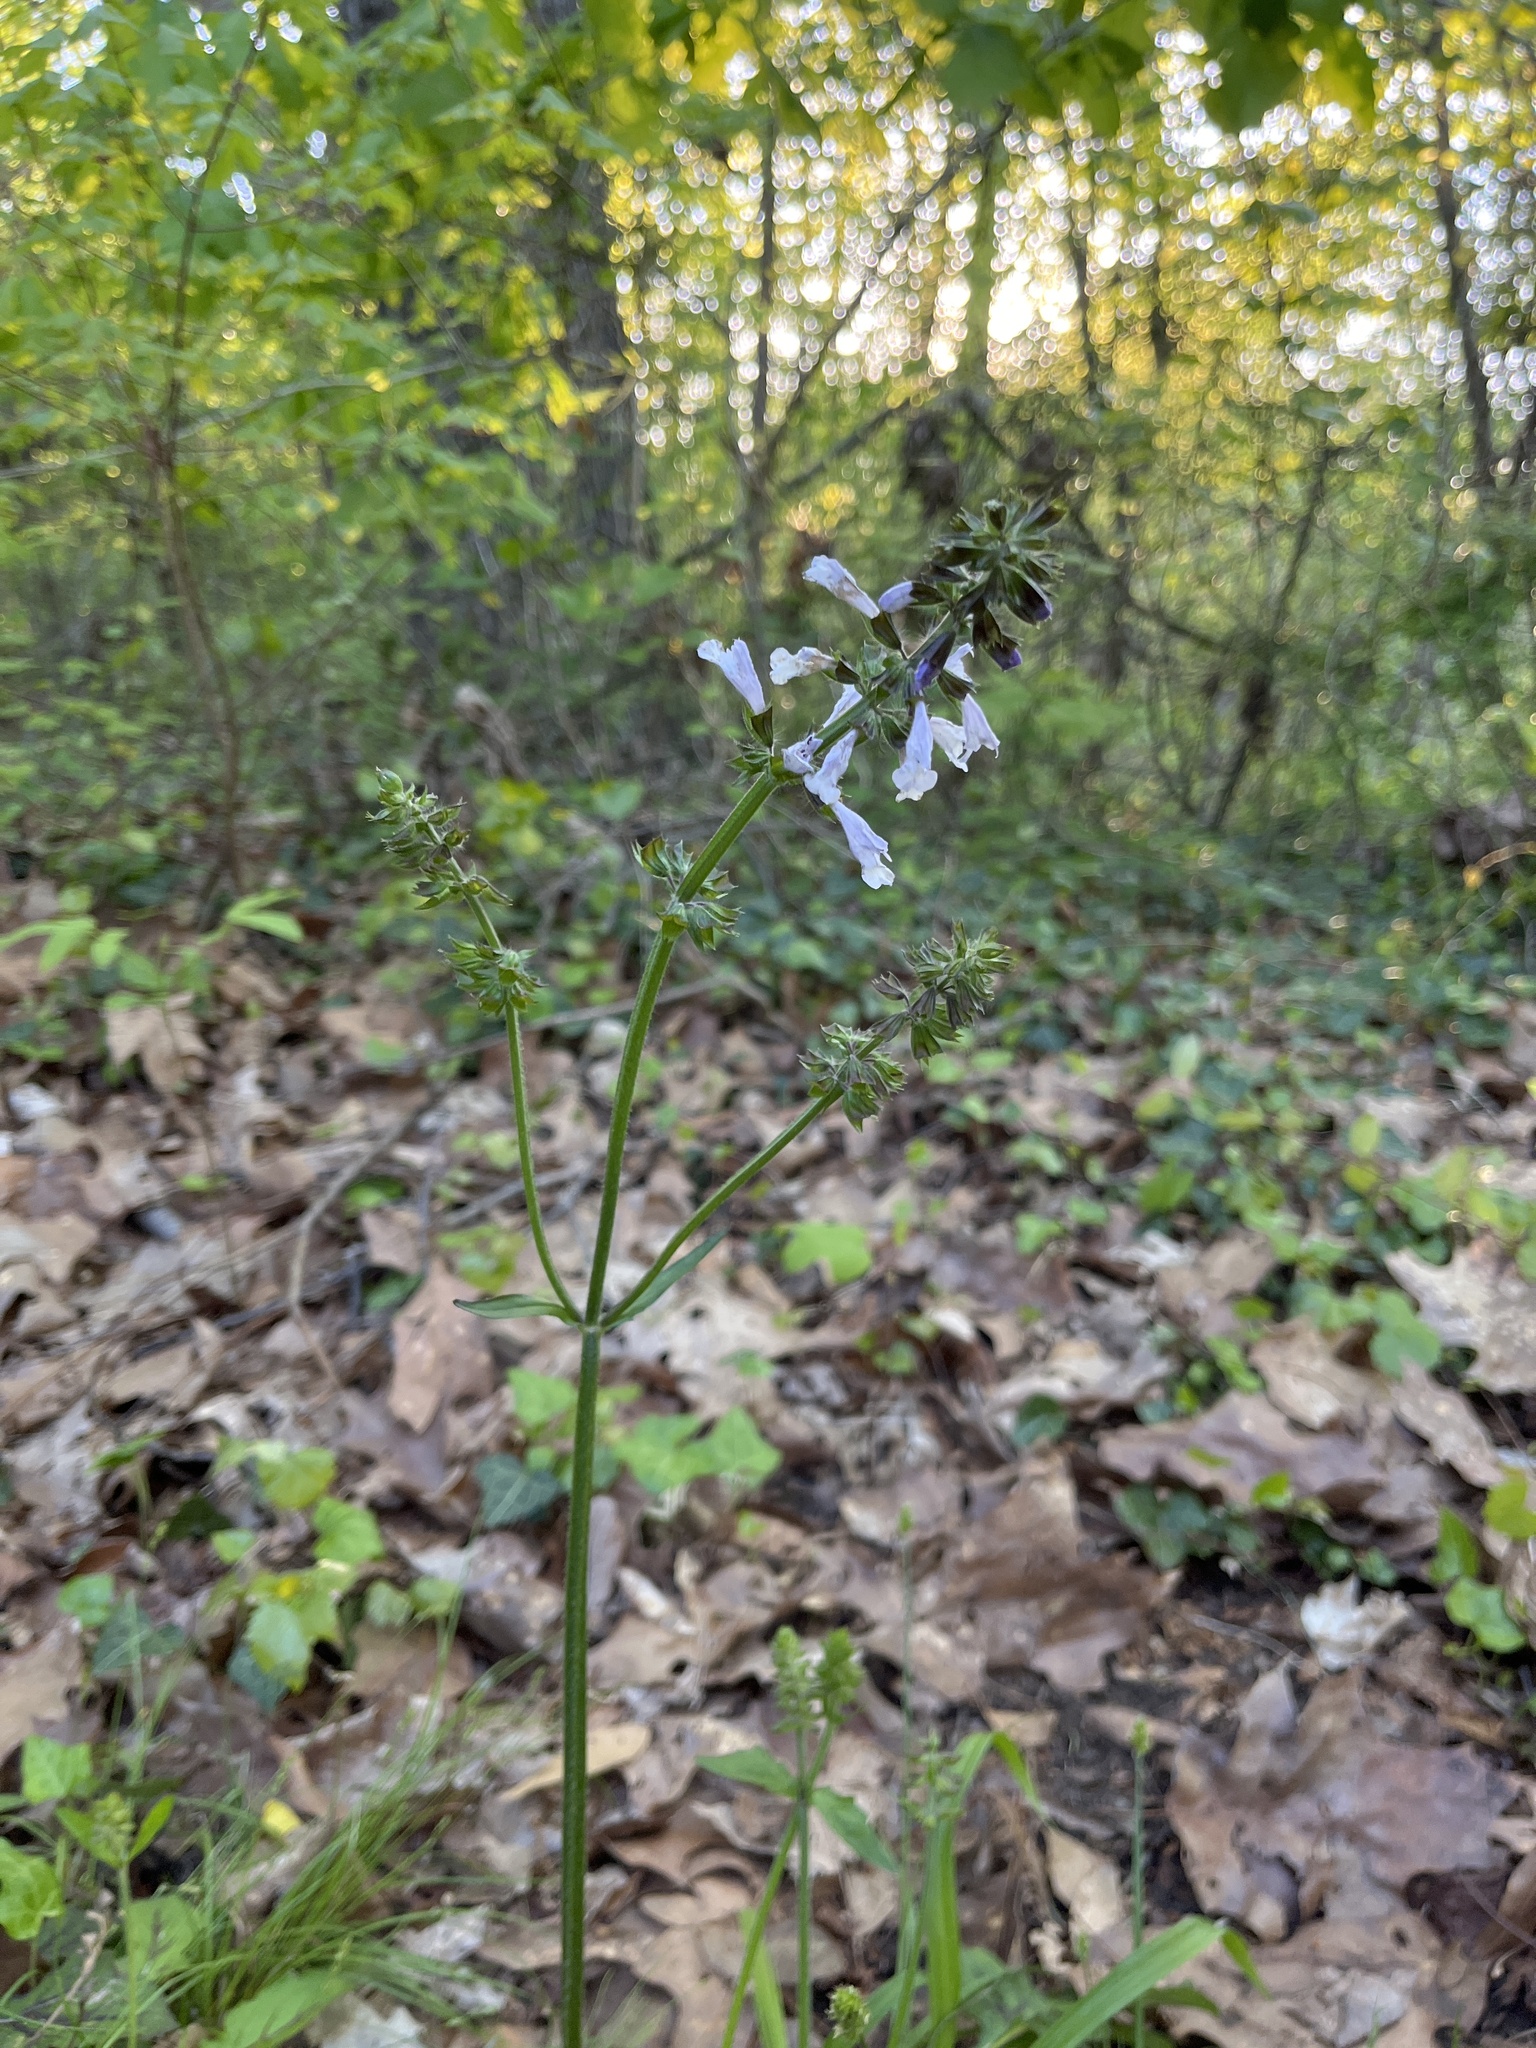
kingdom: Plantae
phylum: Tracheophyta
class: Magnoliopsida
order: Lamiales
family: Lamiaceae
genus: Salvia
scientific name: Salvia lyrata
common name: Cancerweed
